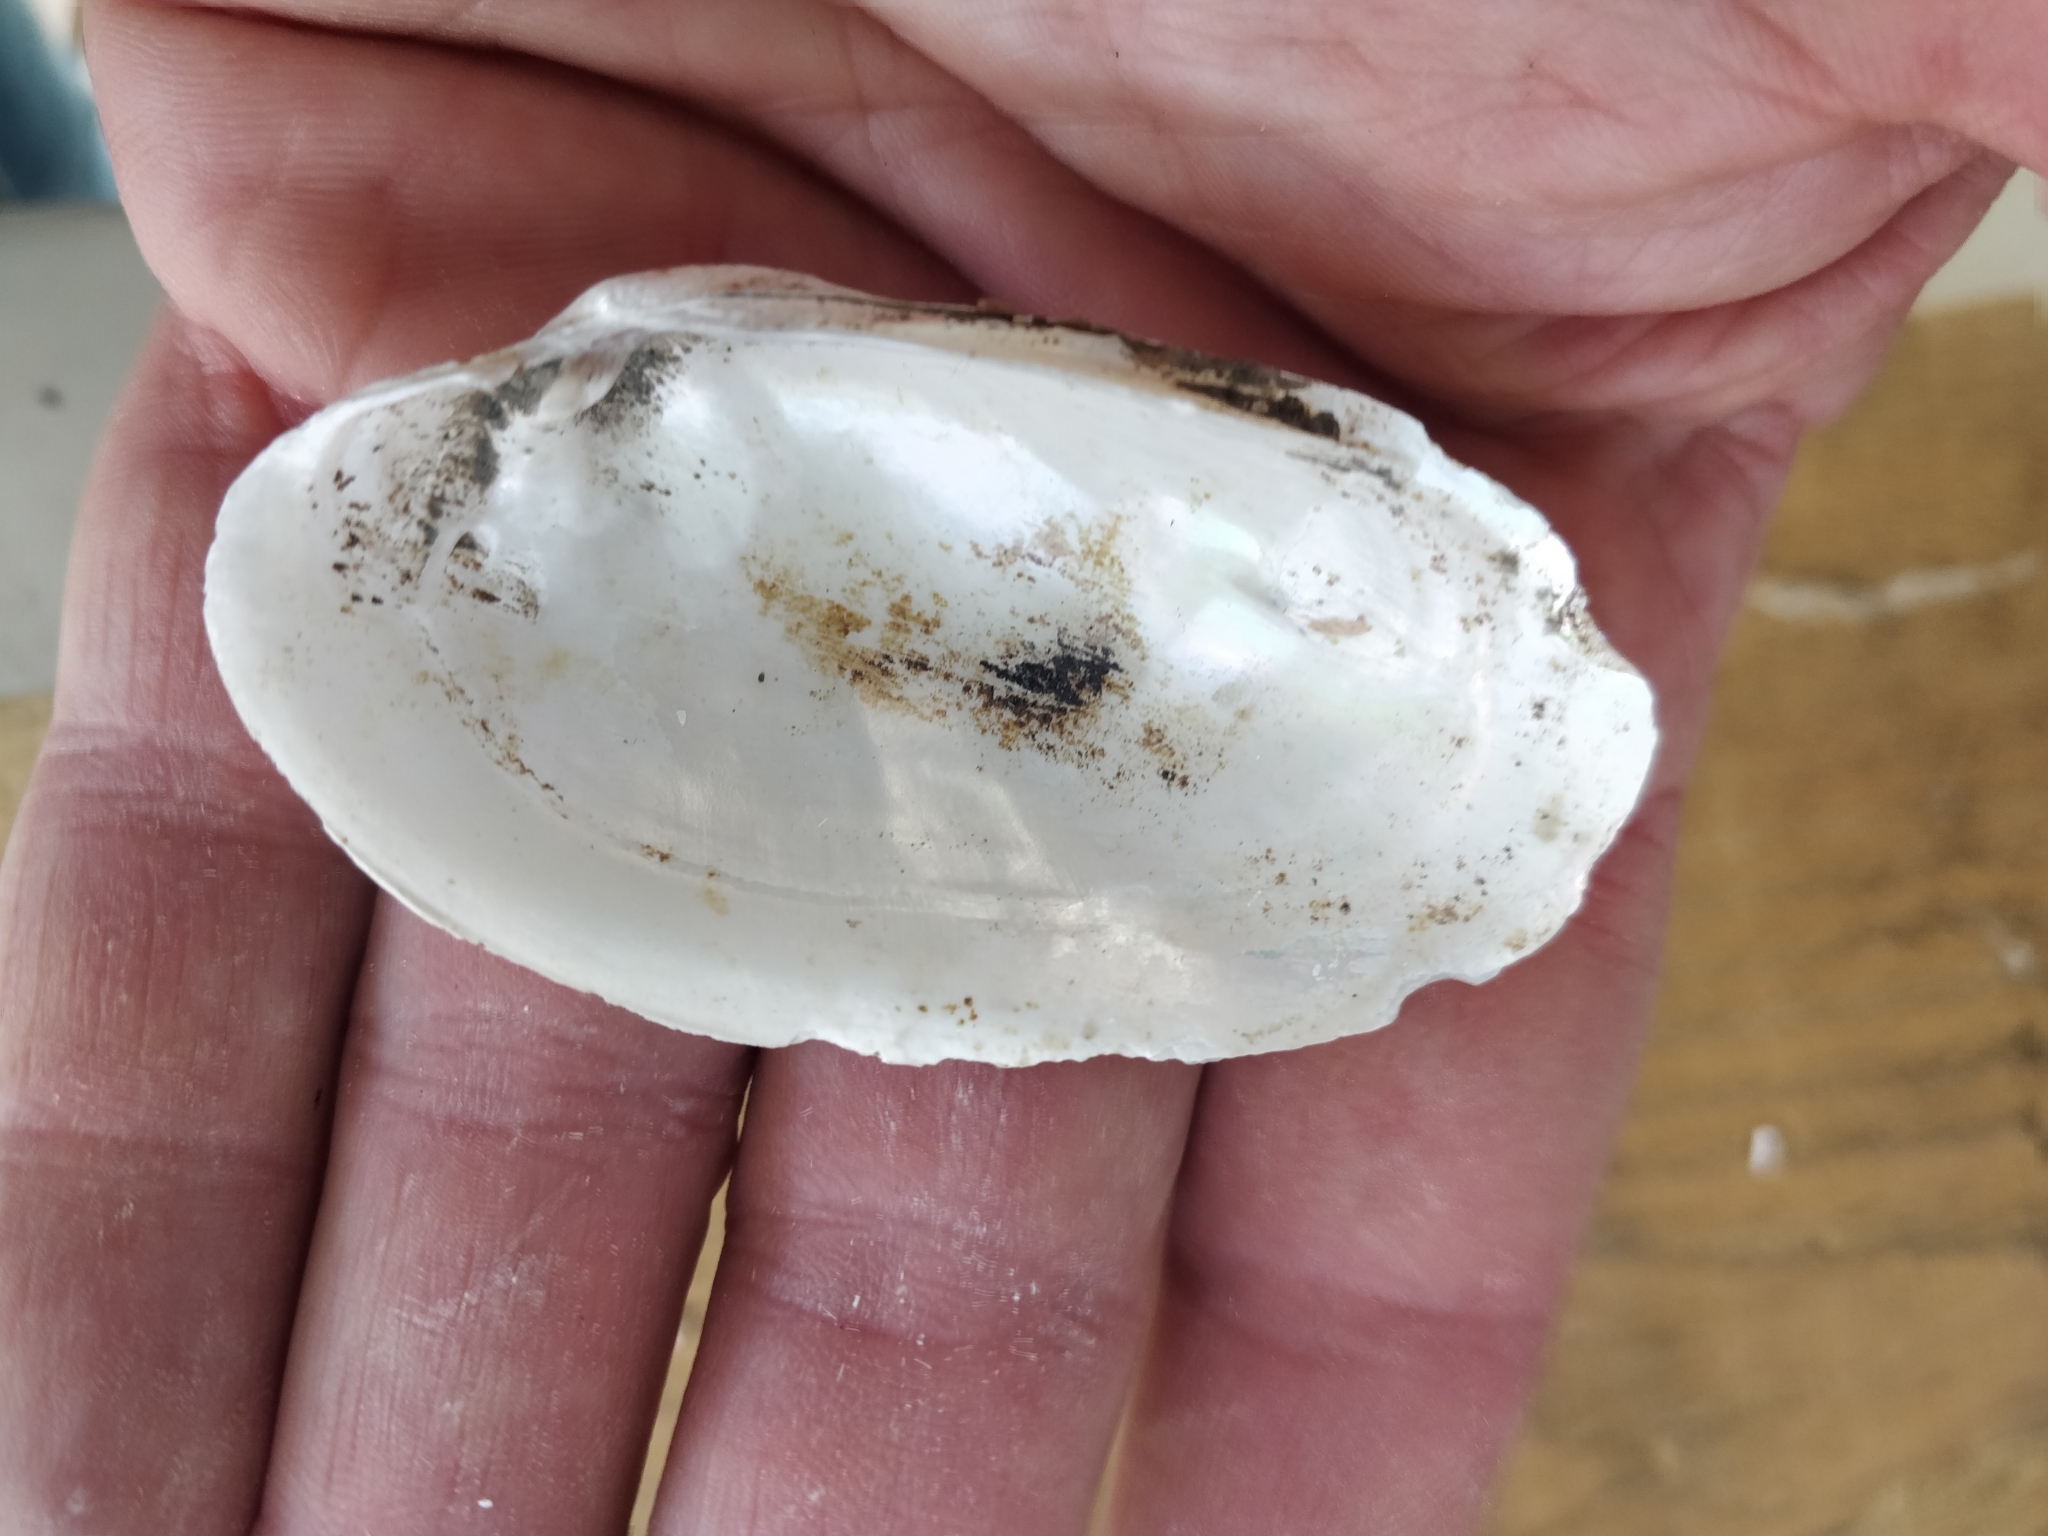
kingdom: Animalia
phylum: Mollusca
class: Bivalvia
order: Unionida
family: Unionidae
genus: Lampsilis
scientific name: Lampsilis siliquoidea
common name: Fatmucket
